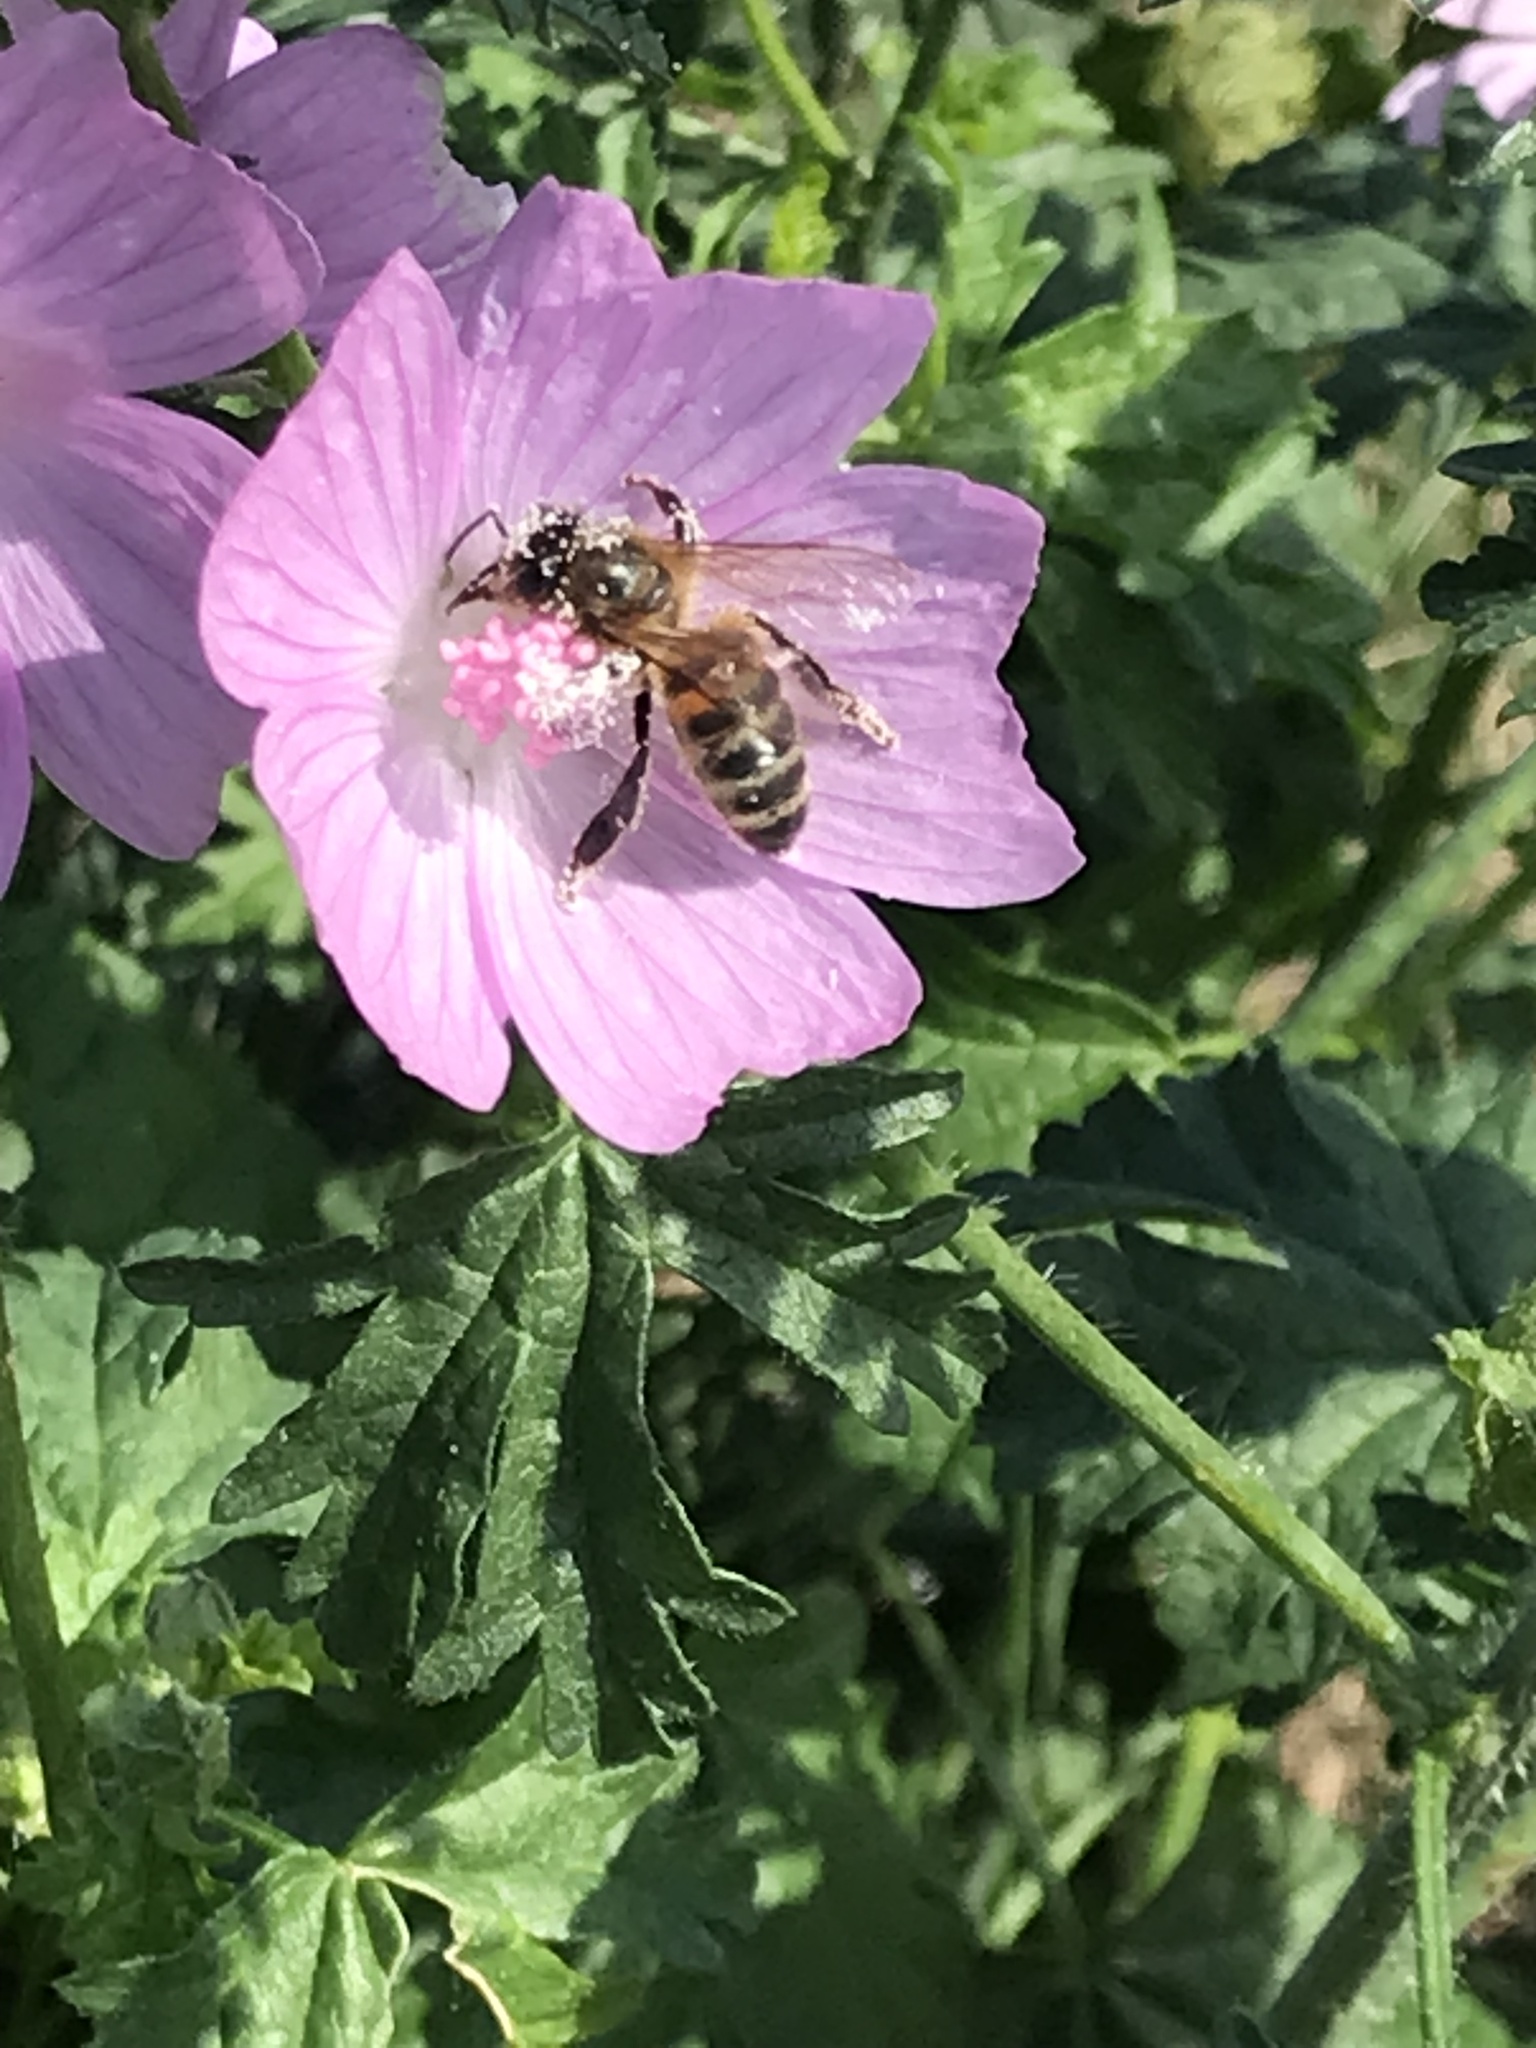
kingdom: Animalia
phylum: Arthropoda
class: Insecta
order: Hymenoptera
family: Apidae
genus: Apis
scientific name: Apis mellifera
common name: Honey bee
